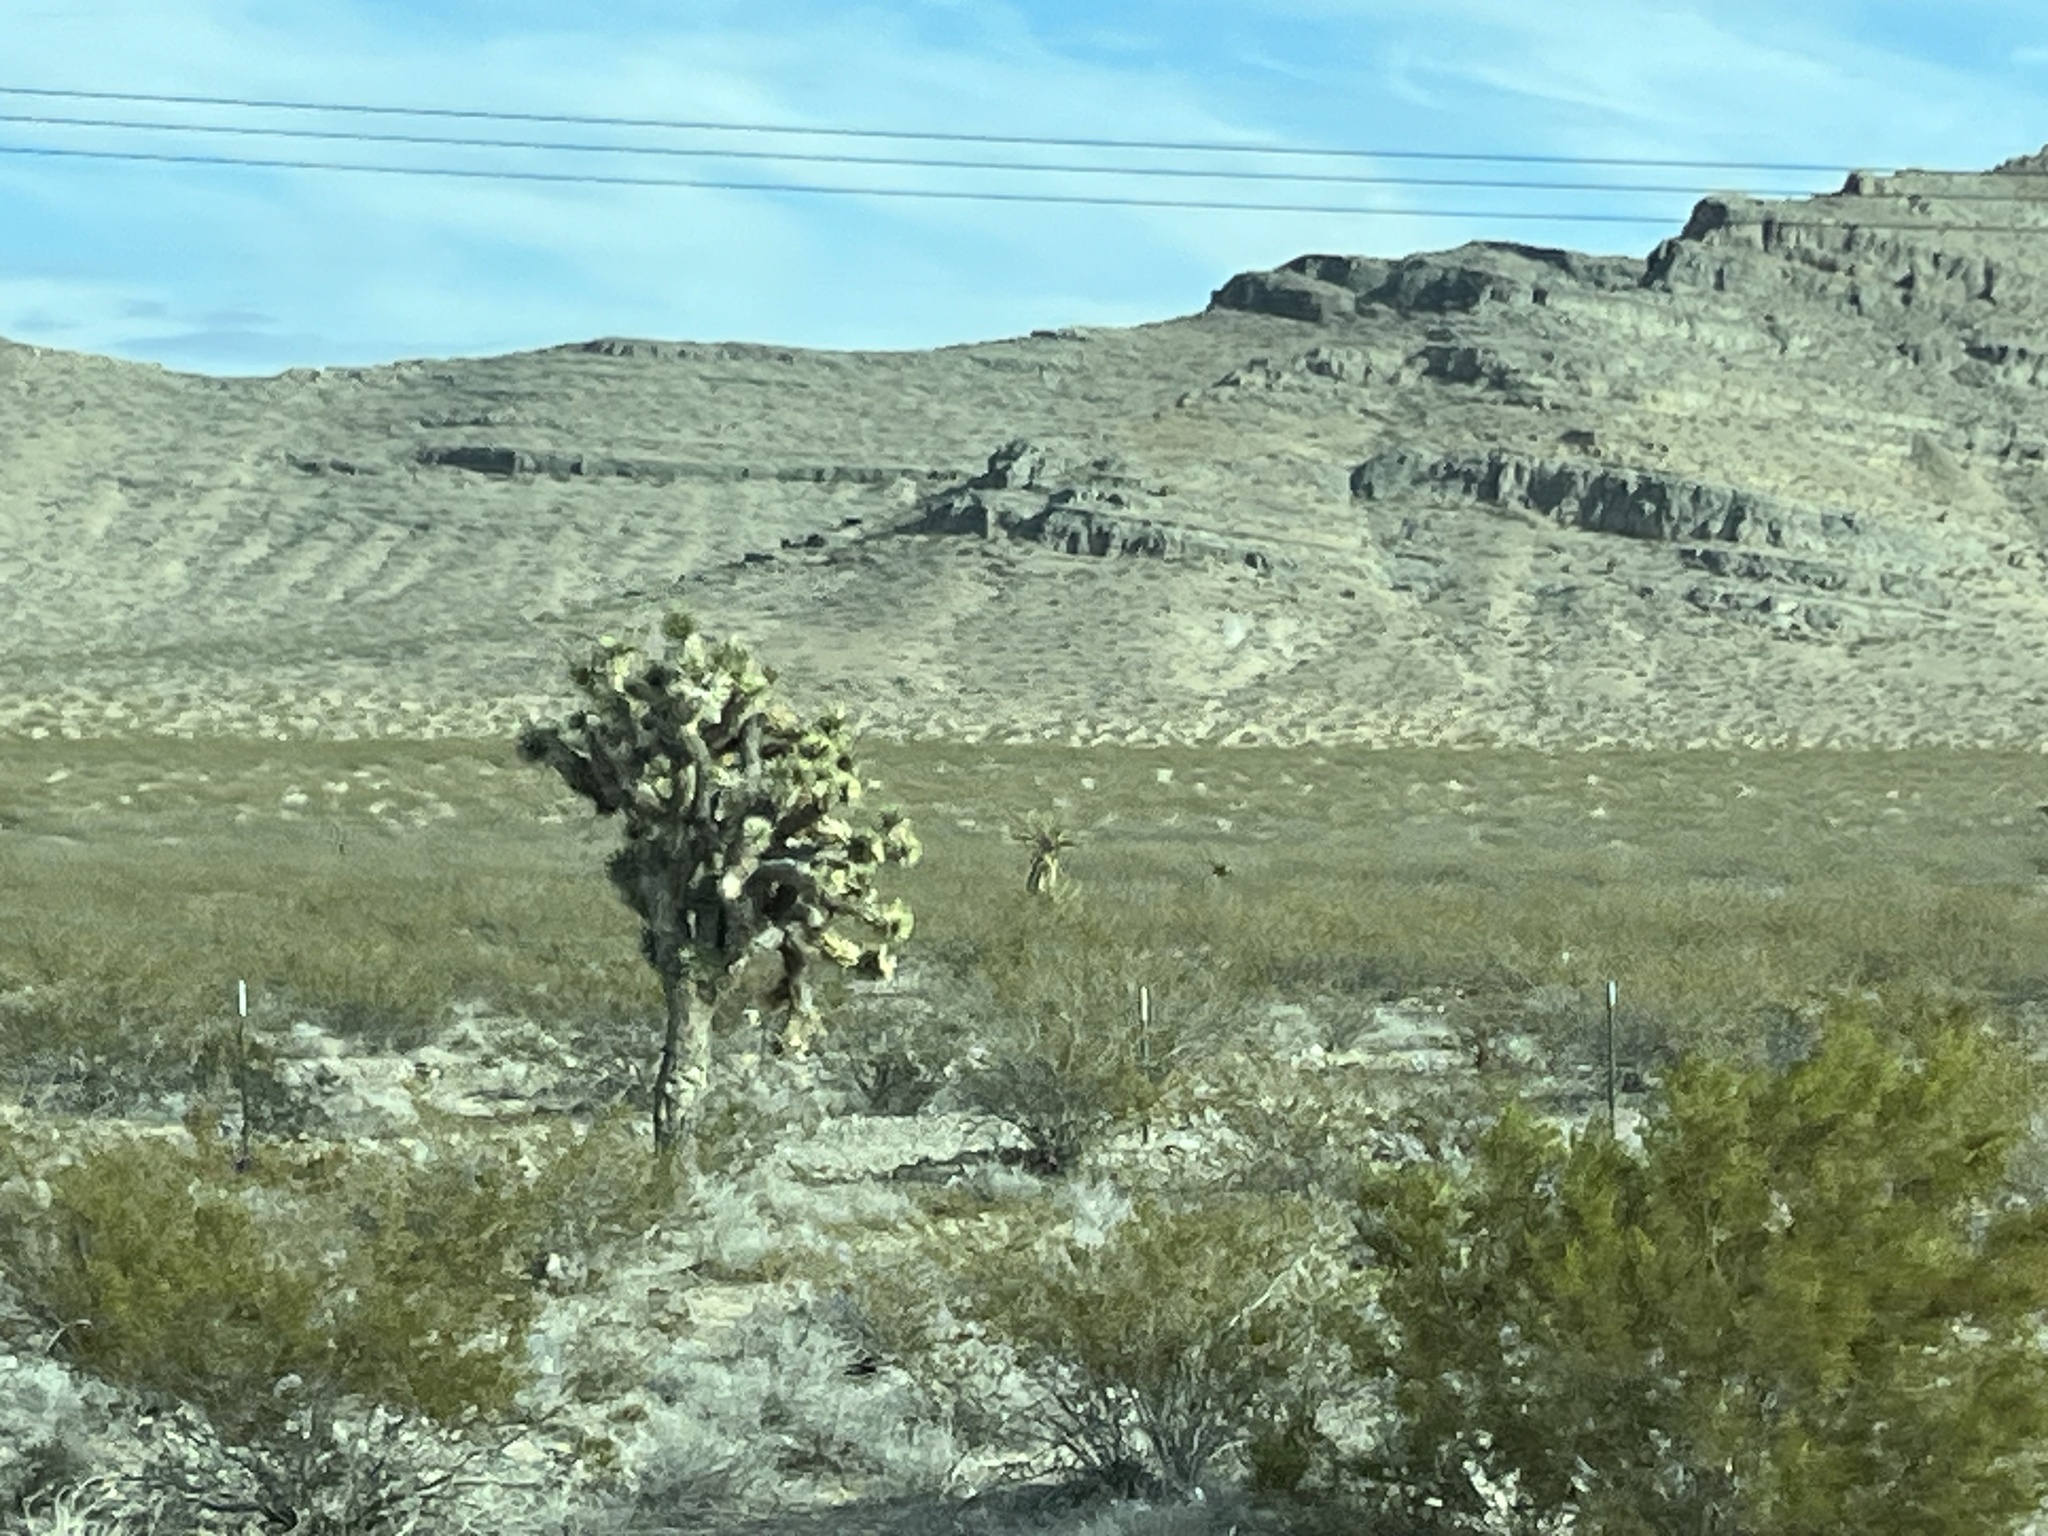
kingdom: Plantae
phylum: Tracheophyta
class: Liliopsida
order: Asparagales
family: Asparagaceae
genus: Yucca
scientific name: Yucca brevifolia
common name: Joshua tree
